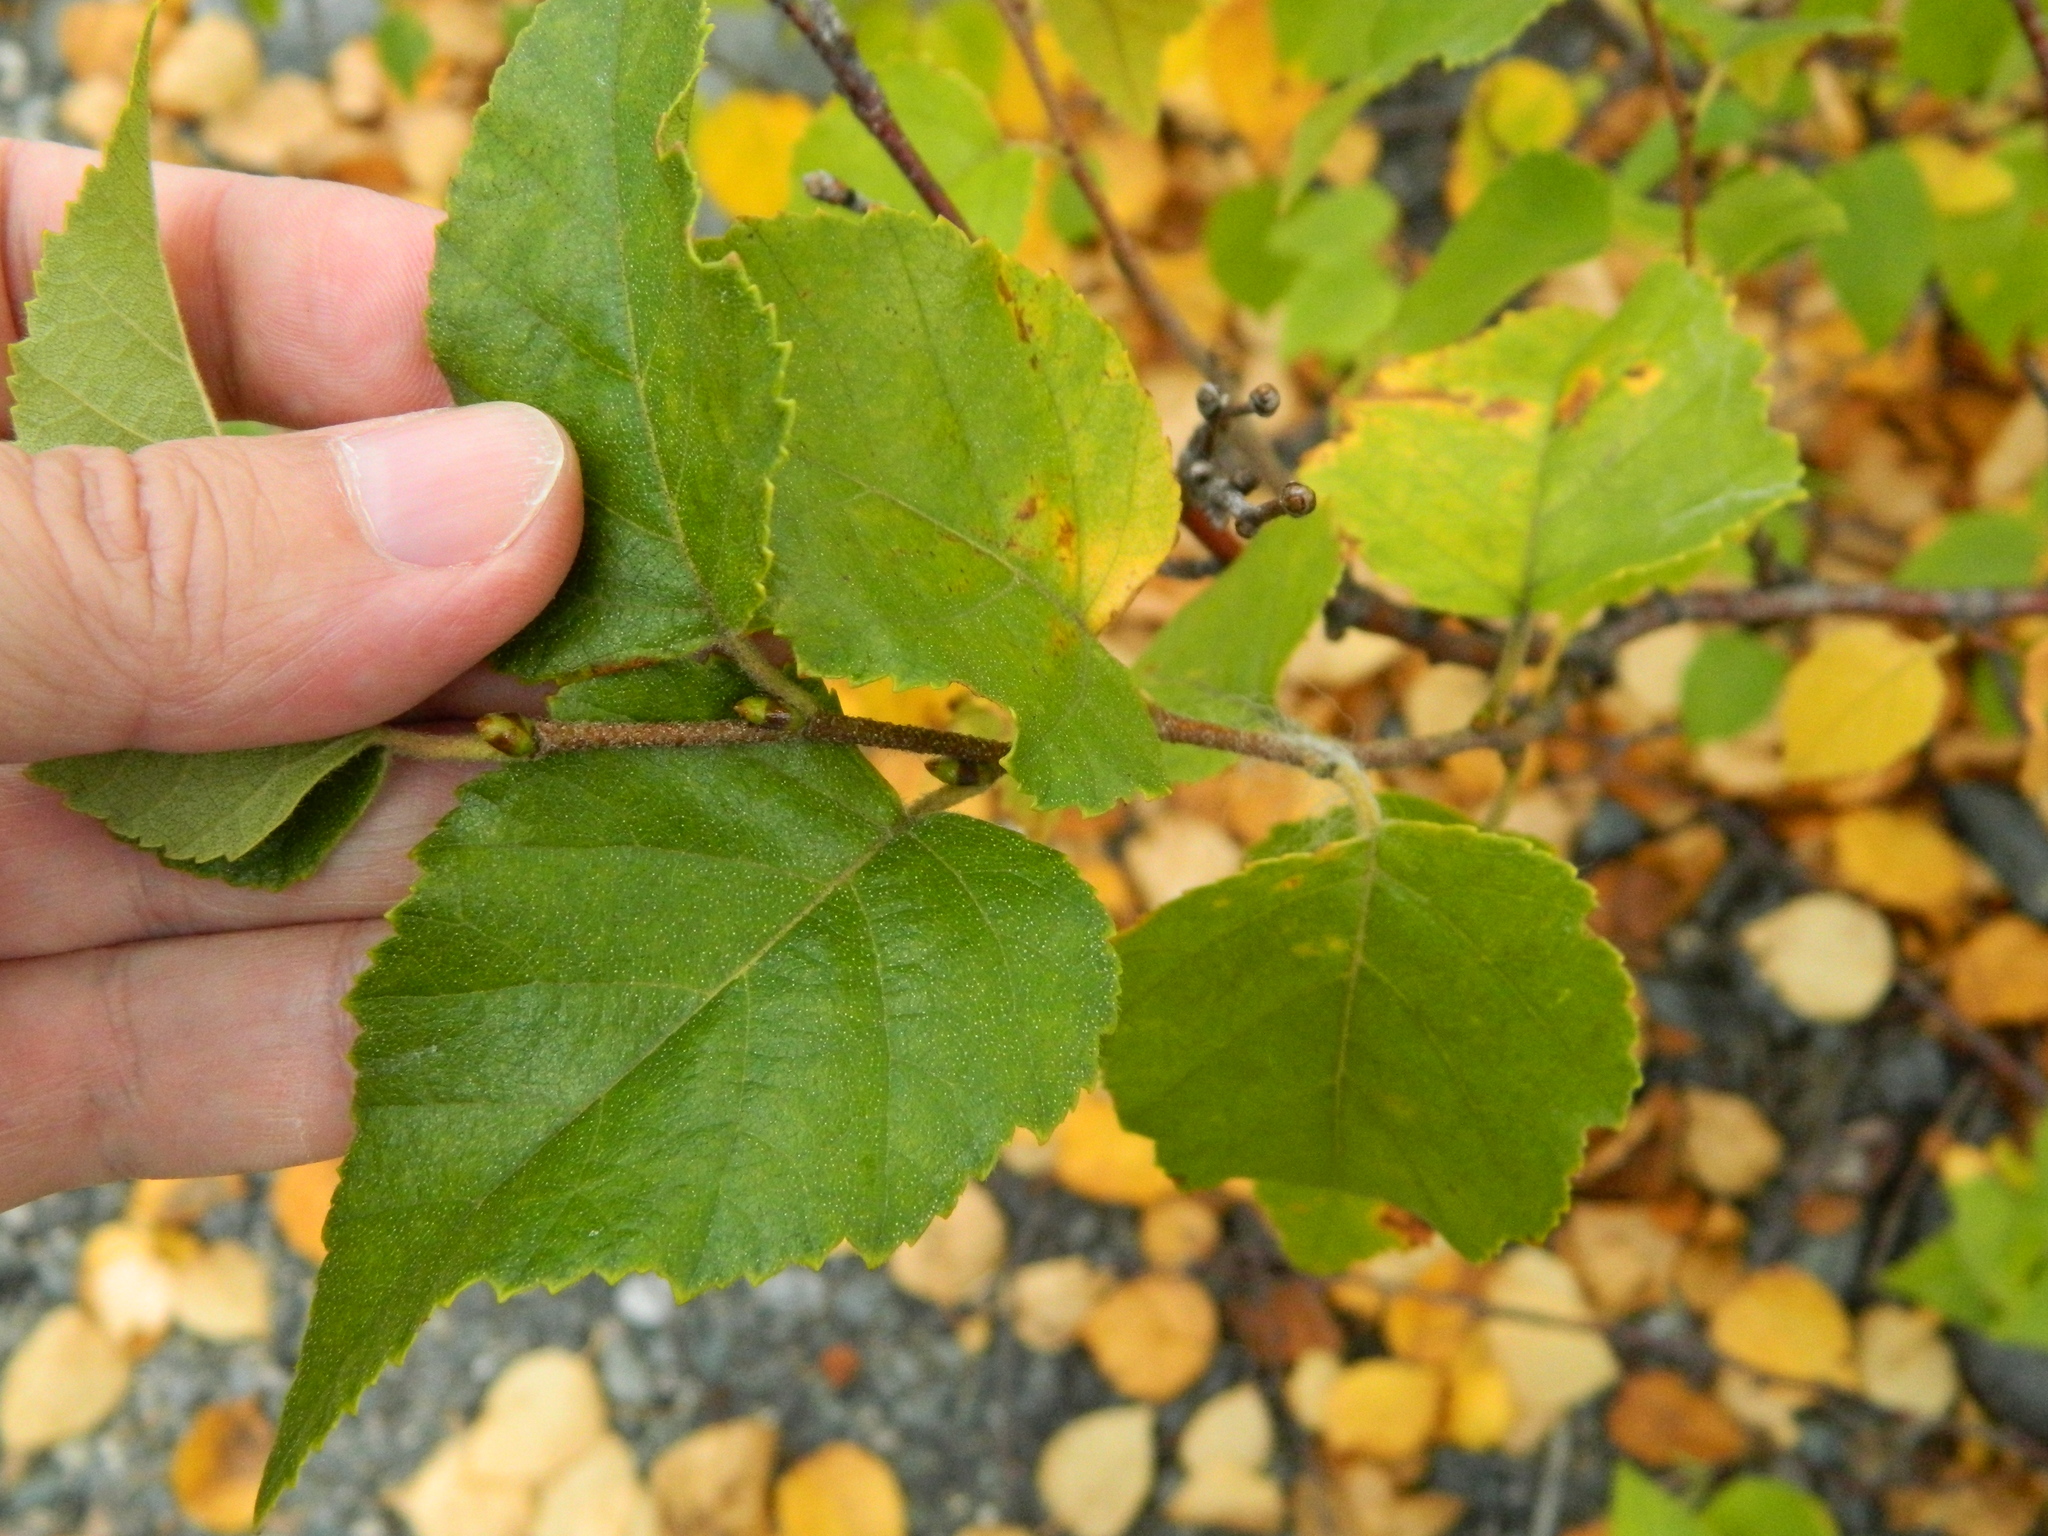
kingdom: Plantae
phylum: Tracheophyta
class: Magnoliopsida
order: Fagales
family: Betulaceae
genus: Betula
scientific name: Betula papyrifera
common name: Paper birch
